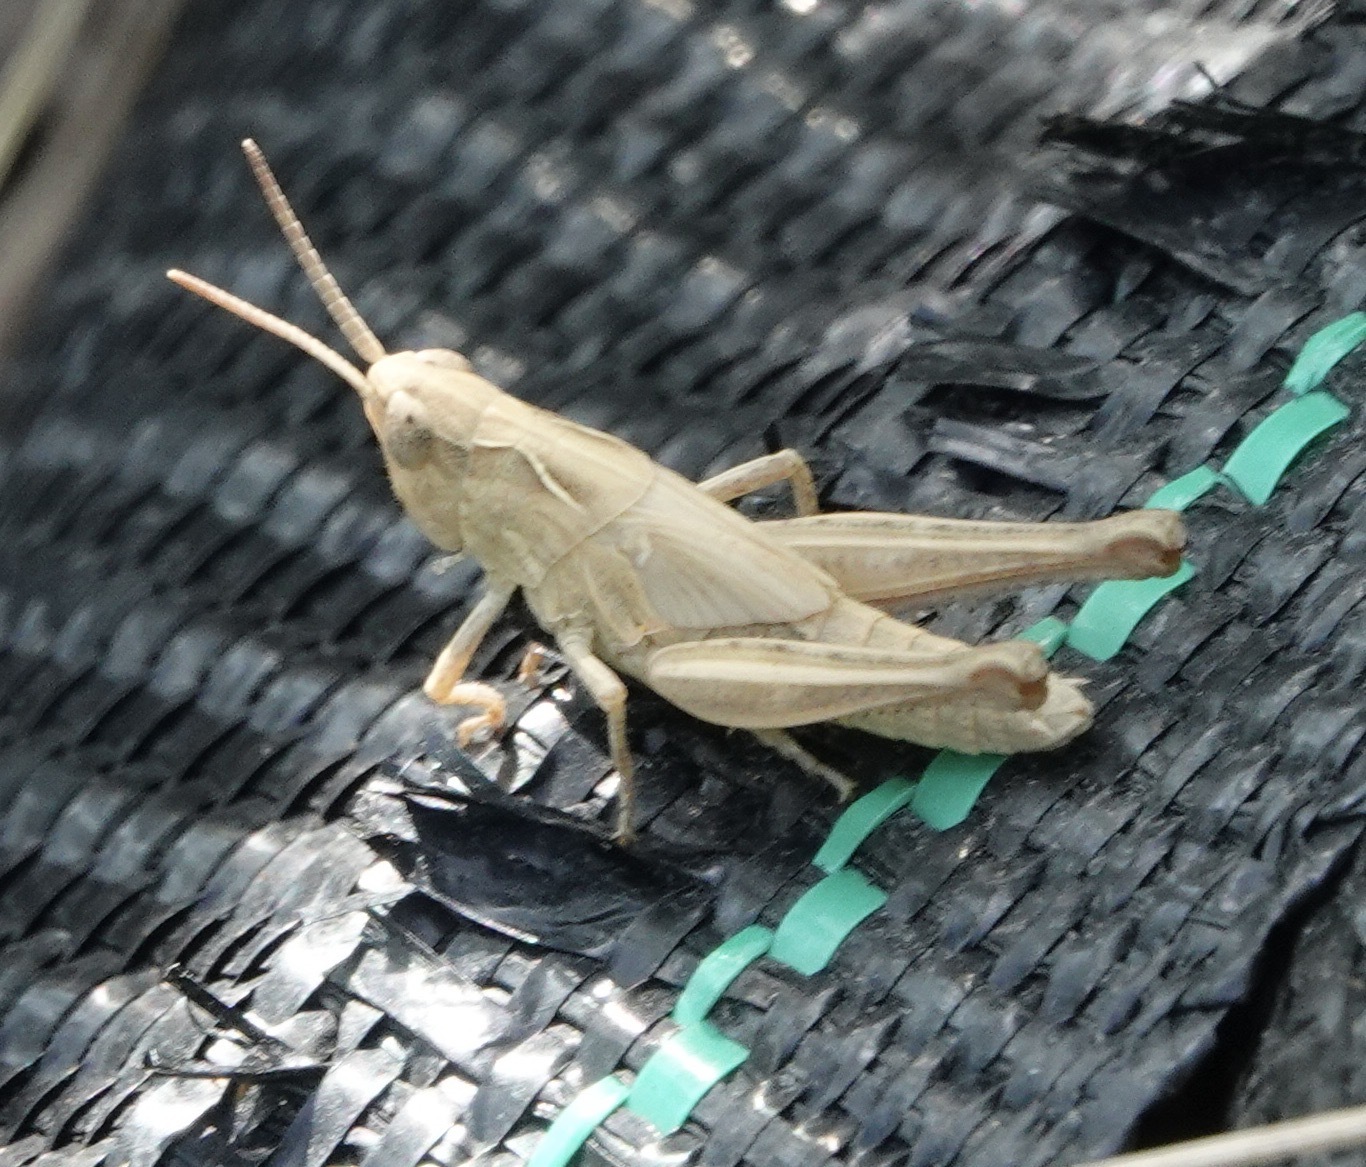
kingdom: Animalia
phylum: Arthropoda
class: Insecta
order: Orthoptera
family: Acrididae
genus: Chorthippus
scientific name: Chorthippus brunneus
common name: Field grasshopper
